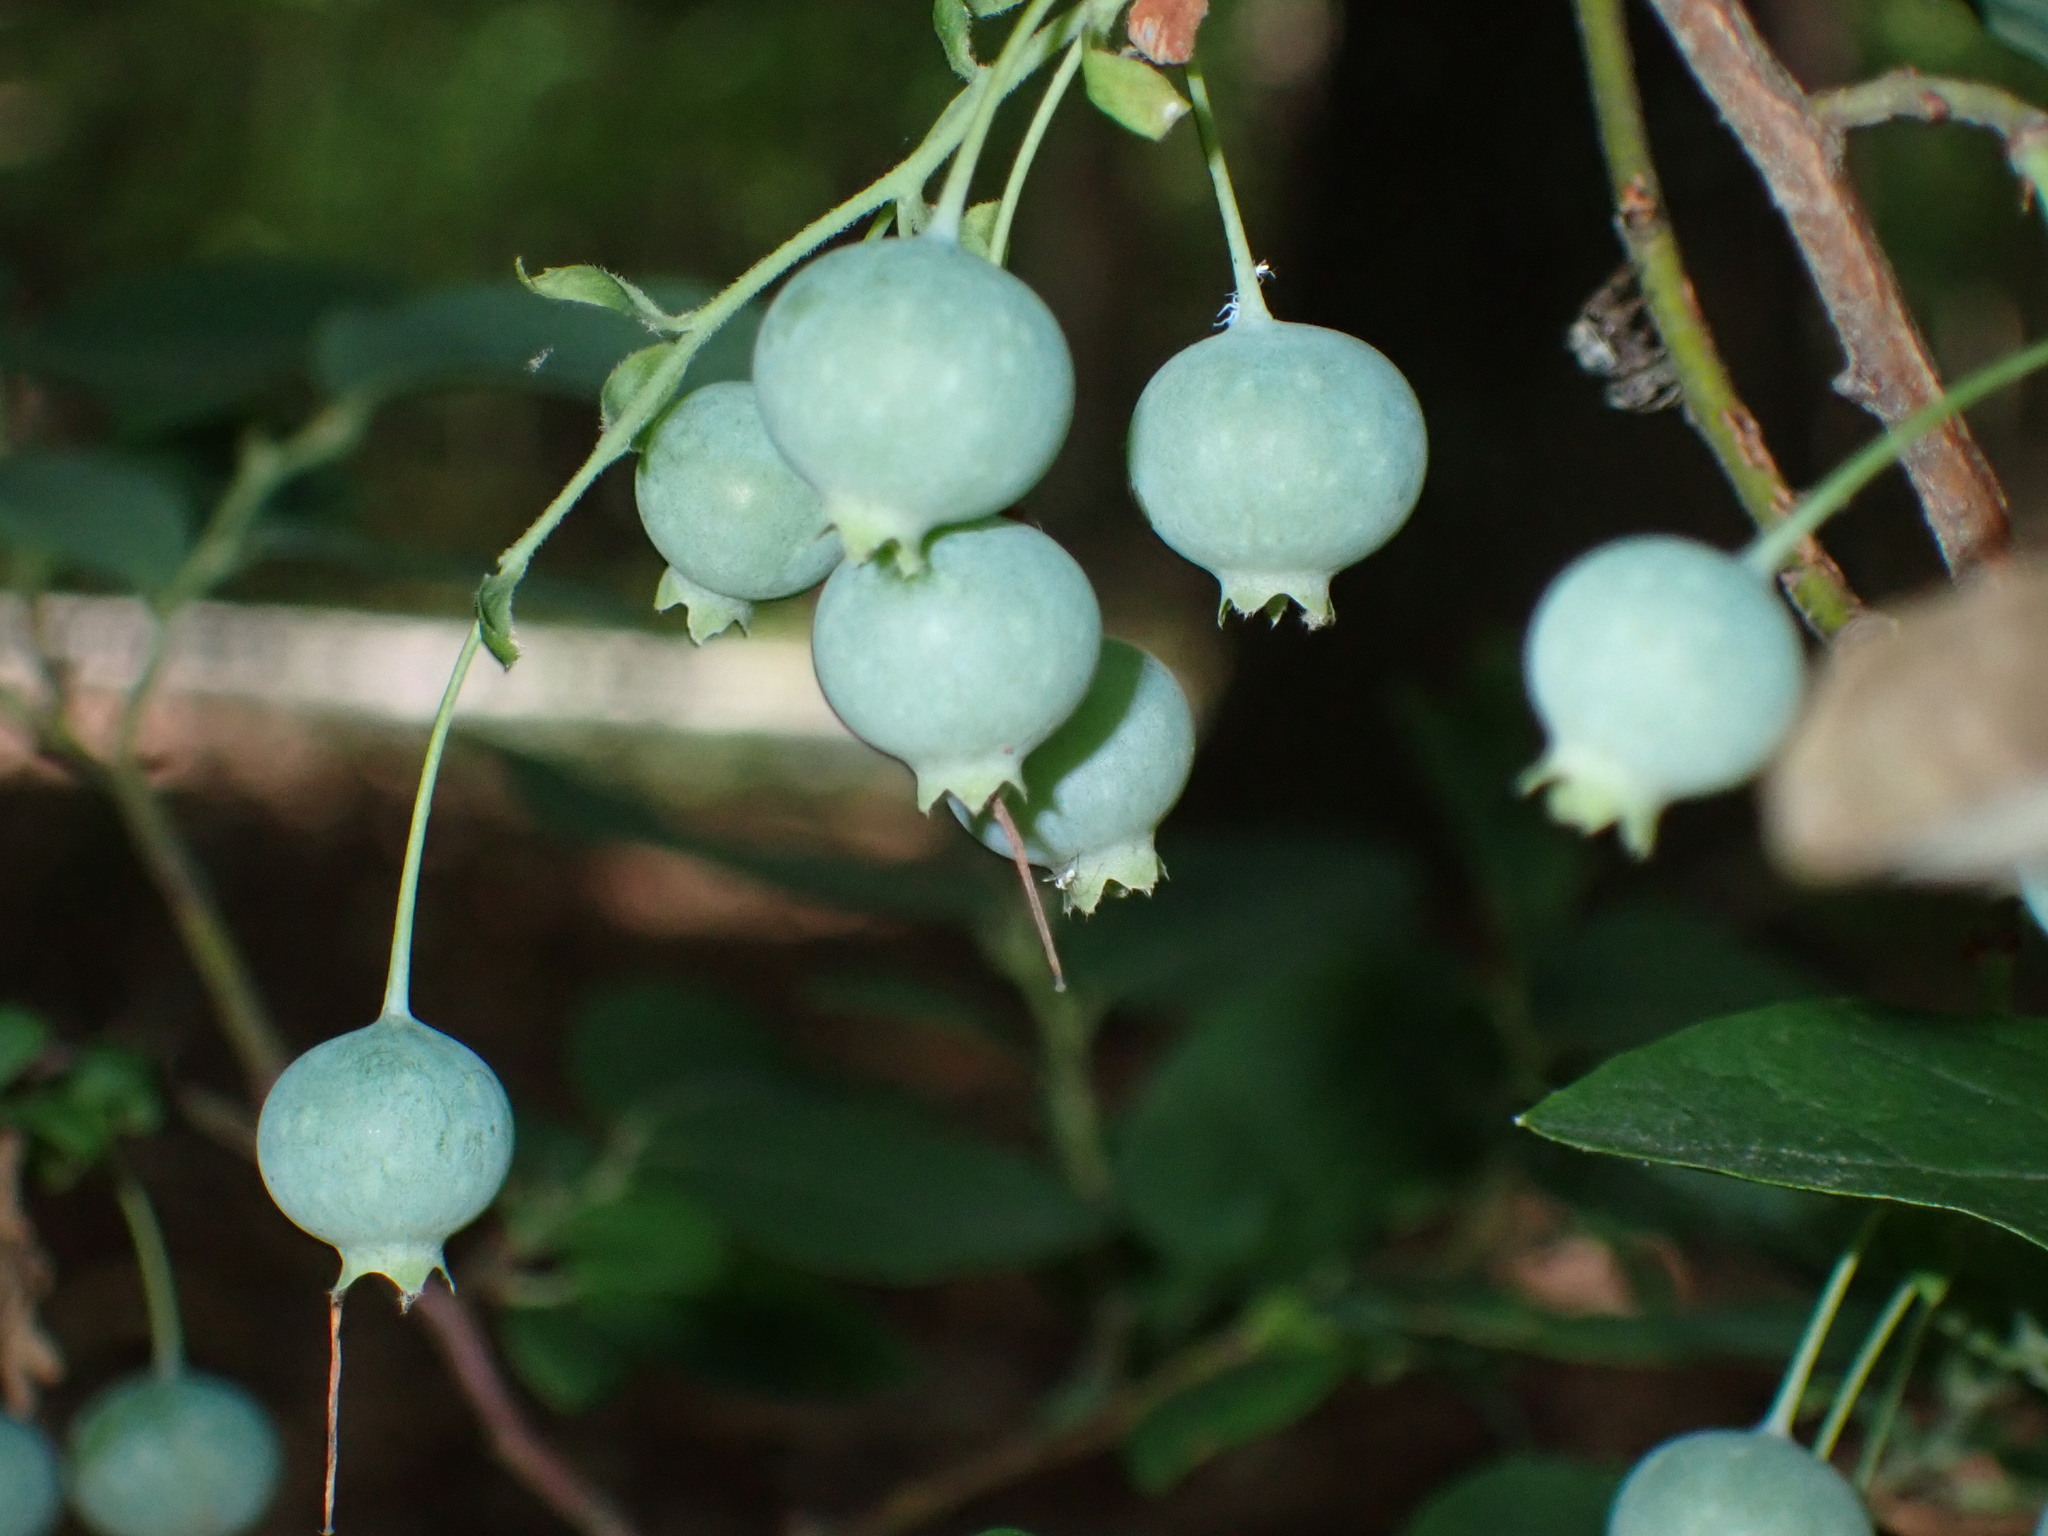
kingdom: Plantae
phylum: Tracheophyta
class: Magnoliopsida
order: Ericales
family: Ericaceae
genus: Vaccinium
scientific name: Vaccinium stamineum
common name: Deerberry
